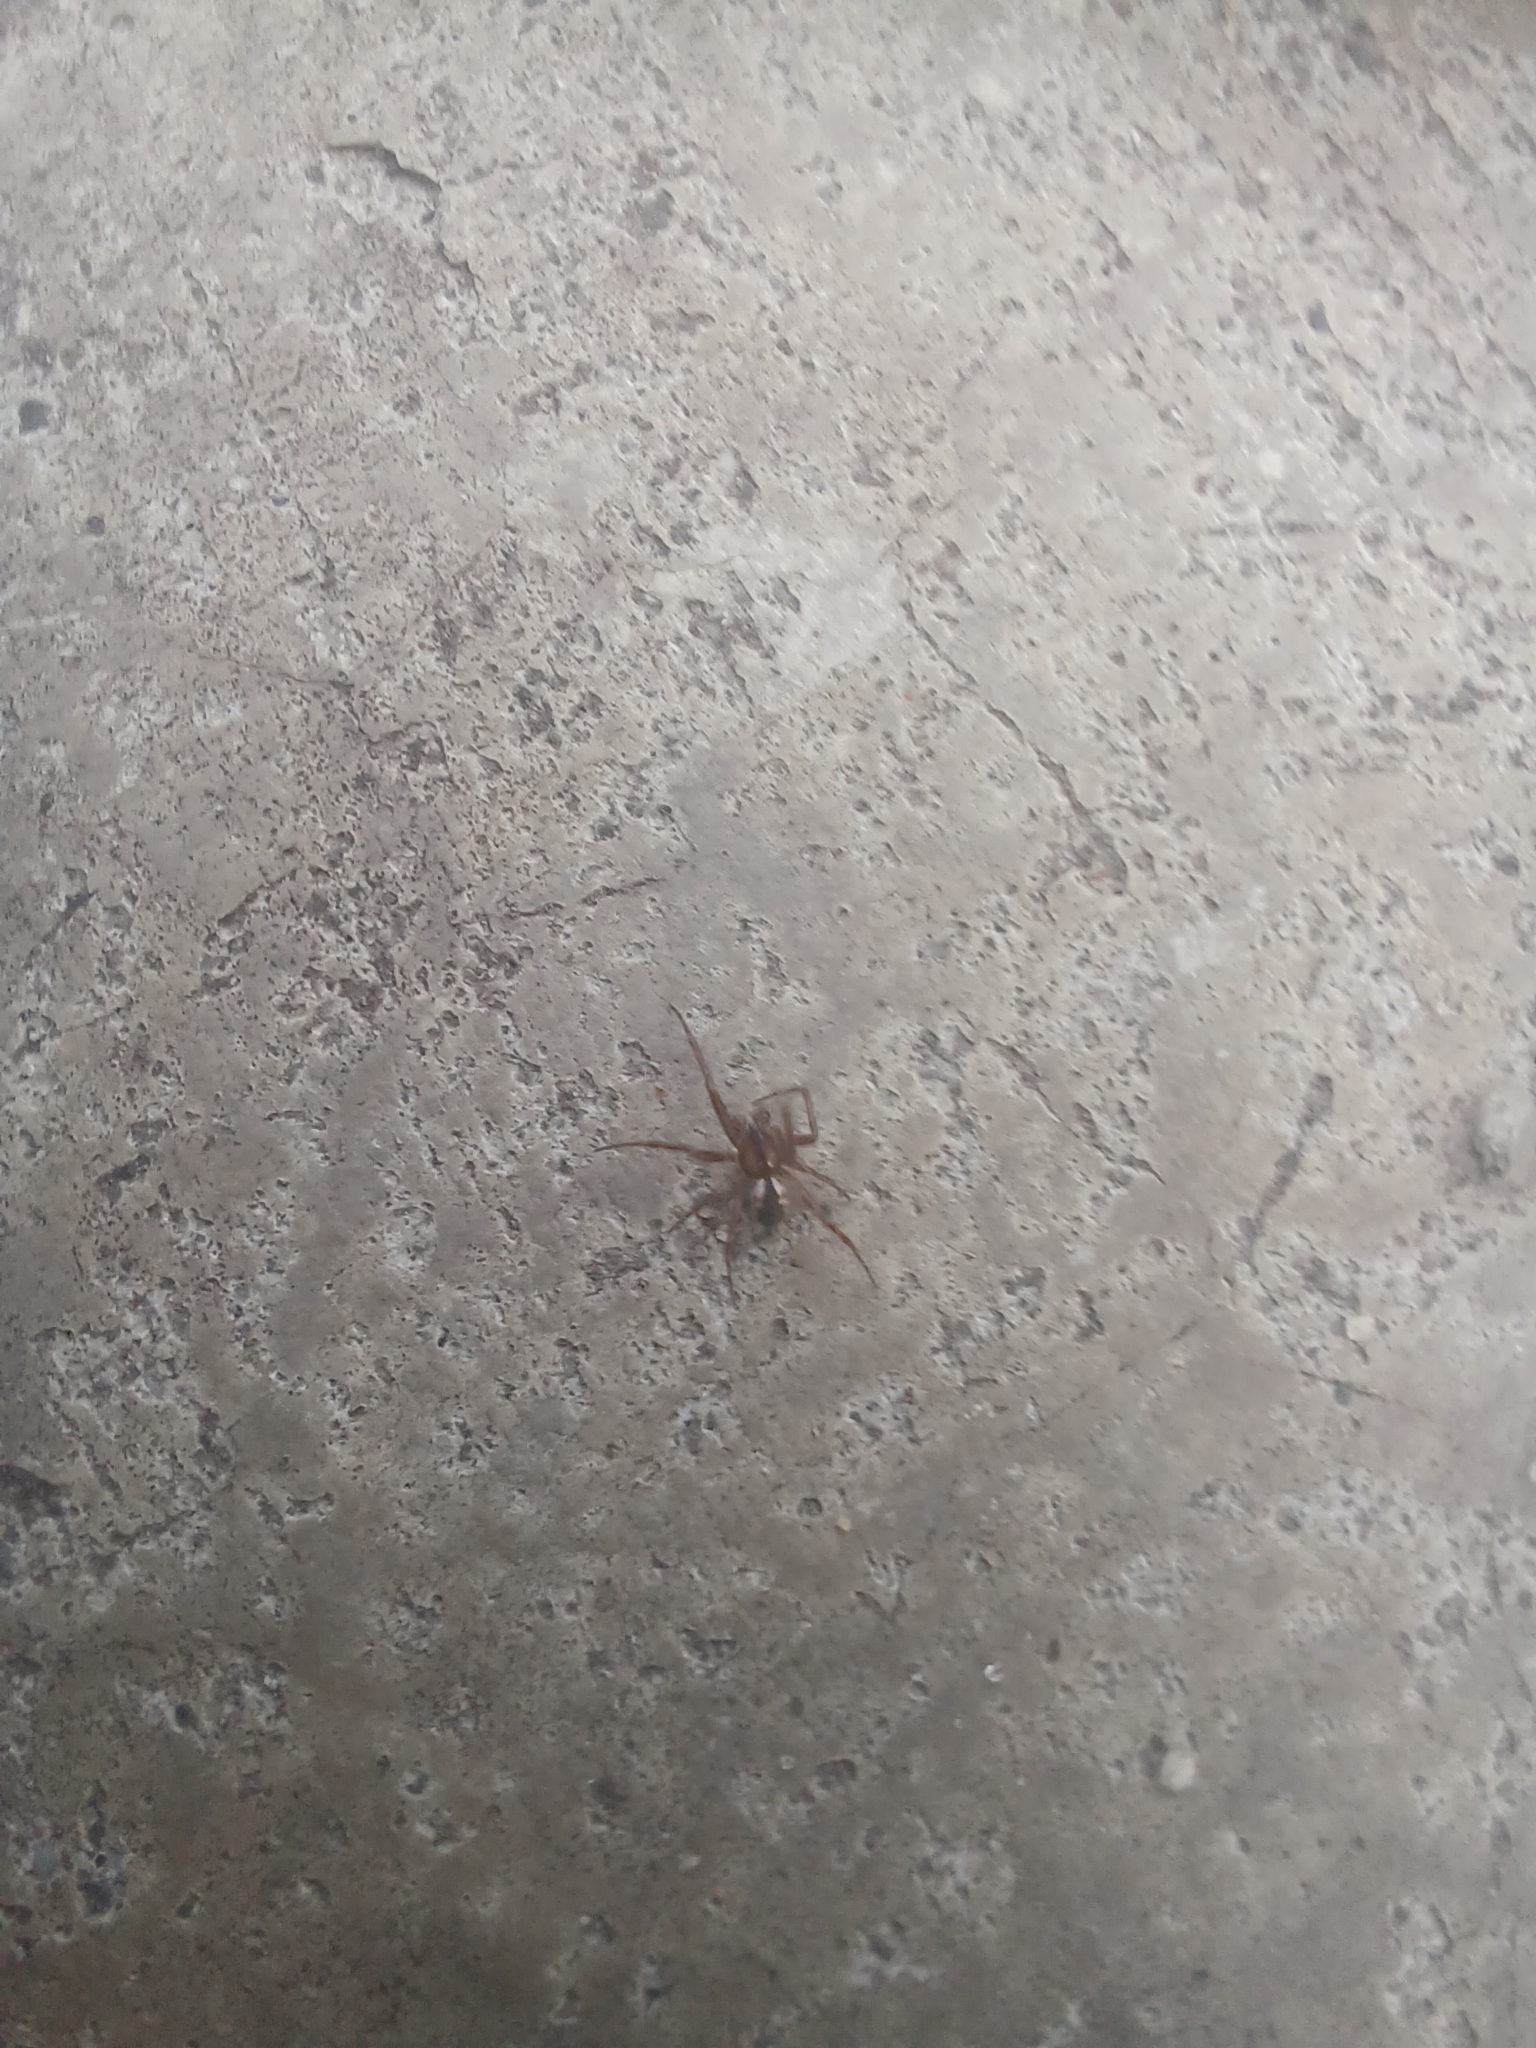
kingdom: Animalia
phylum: Arthropoda
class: Arachnida
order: Araneae
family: Araneidae
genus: Mangora
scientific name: Mangora placida
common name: Tuft-legged orbweaver
